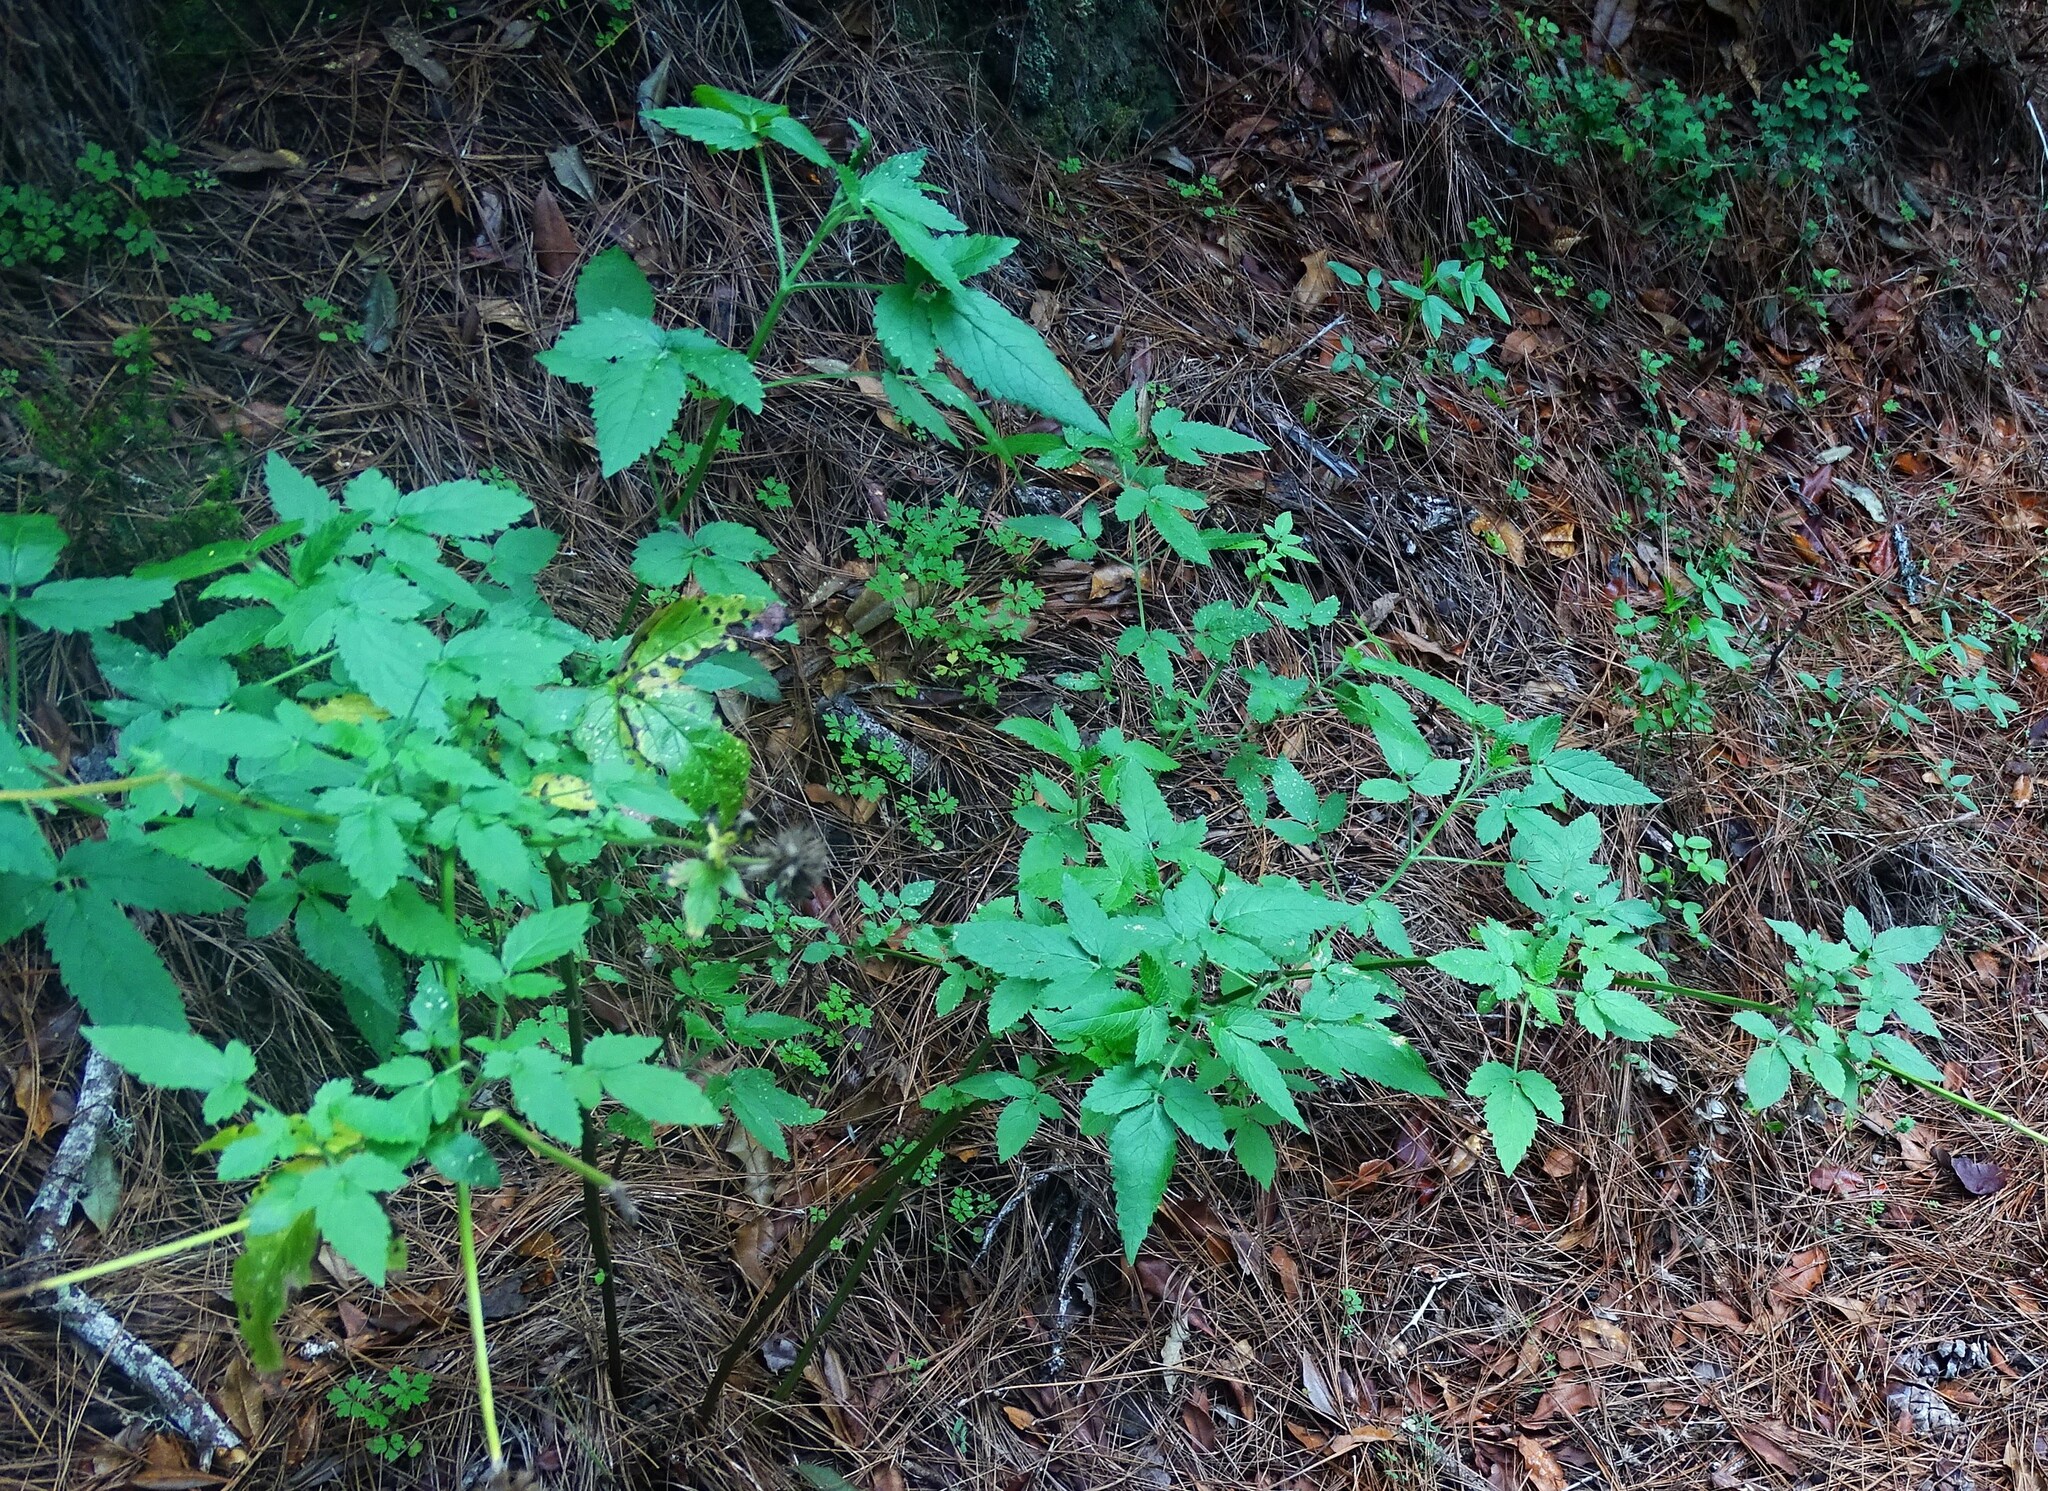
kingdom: Plantae
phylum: Tracheophyta
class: Magnoliopsida
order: Lamiales
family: Lamiaceae
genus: Cedronella
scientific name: Cedronella canariensis
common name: Canary islands balm
